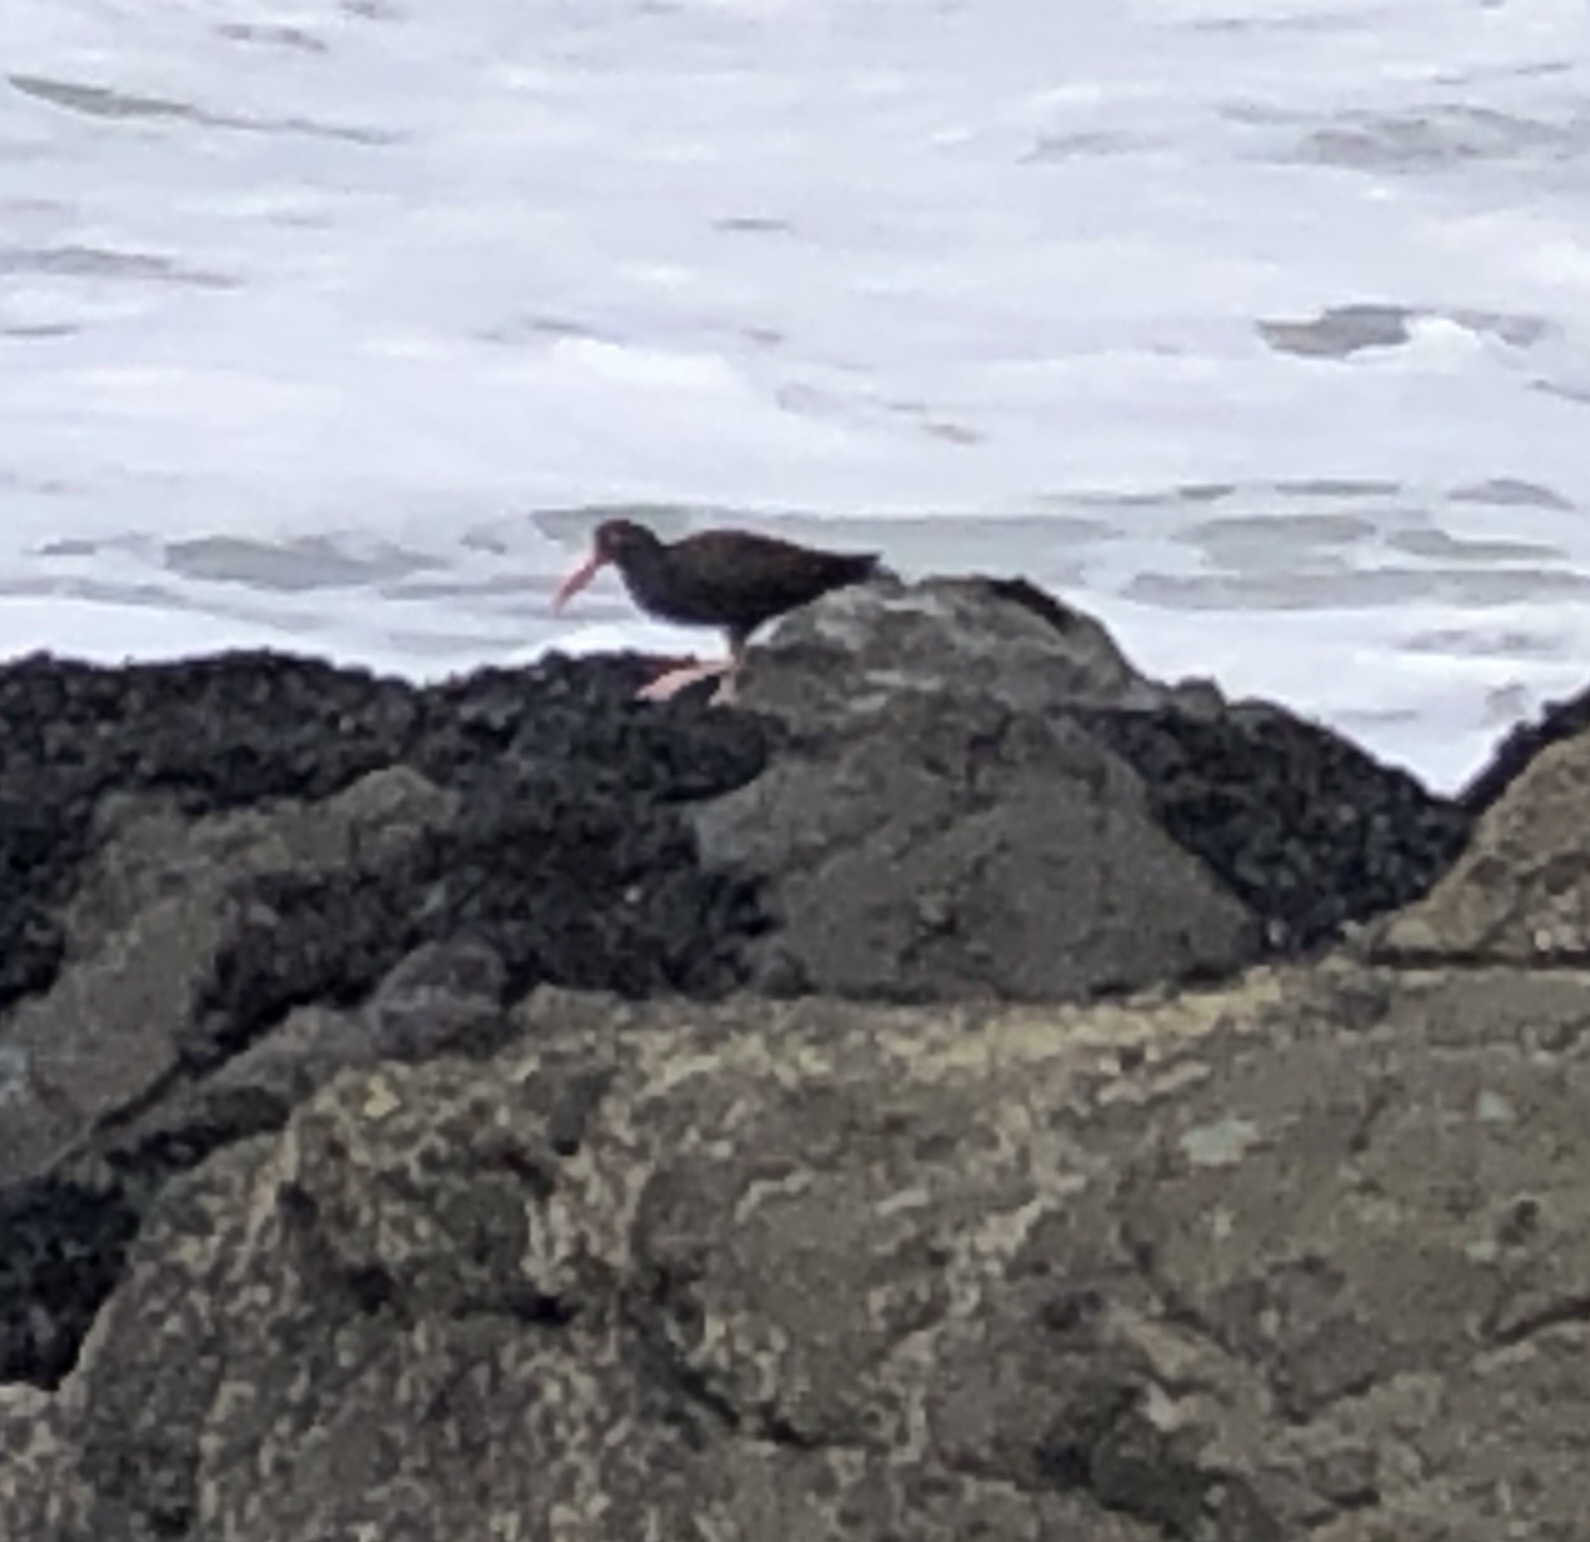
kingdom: Animalia
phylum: Chordata
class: Aves
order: Charadriiformes
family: Haematopodidae
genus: Haematopus
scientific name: Haematopus bachmani
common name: Black oystercatcher
